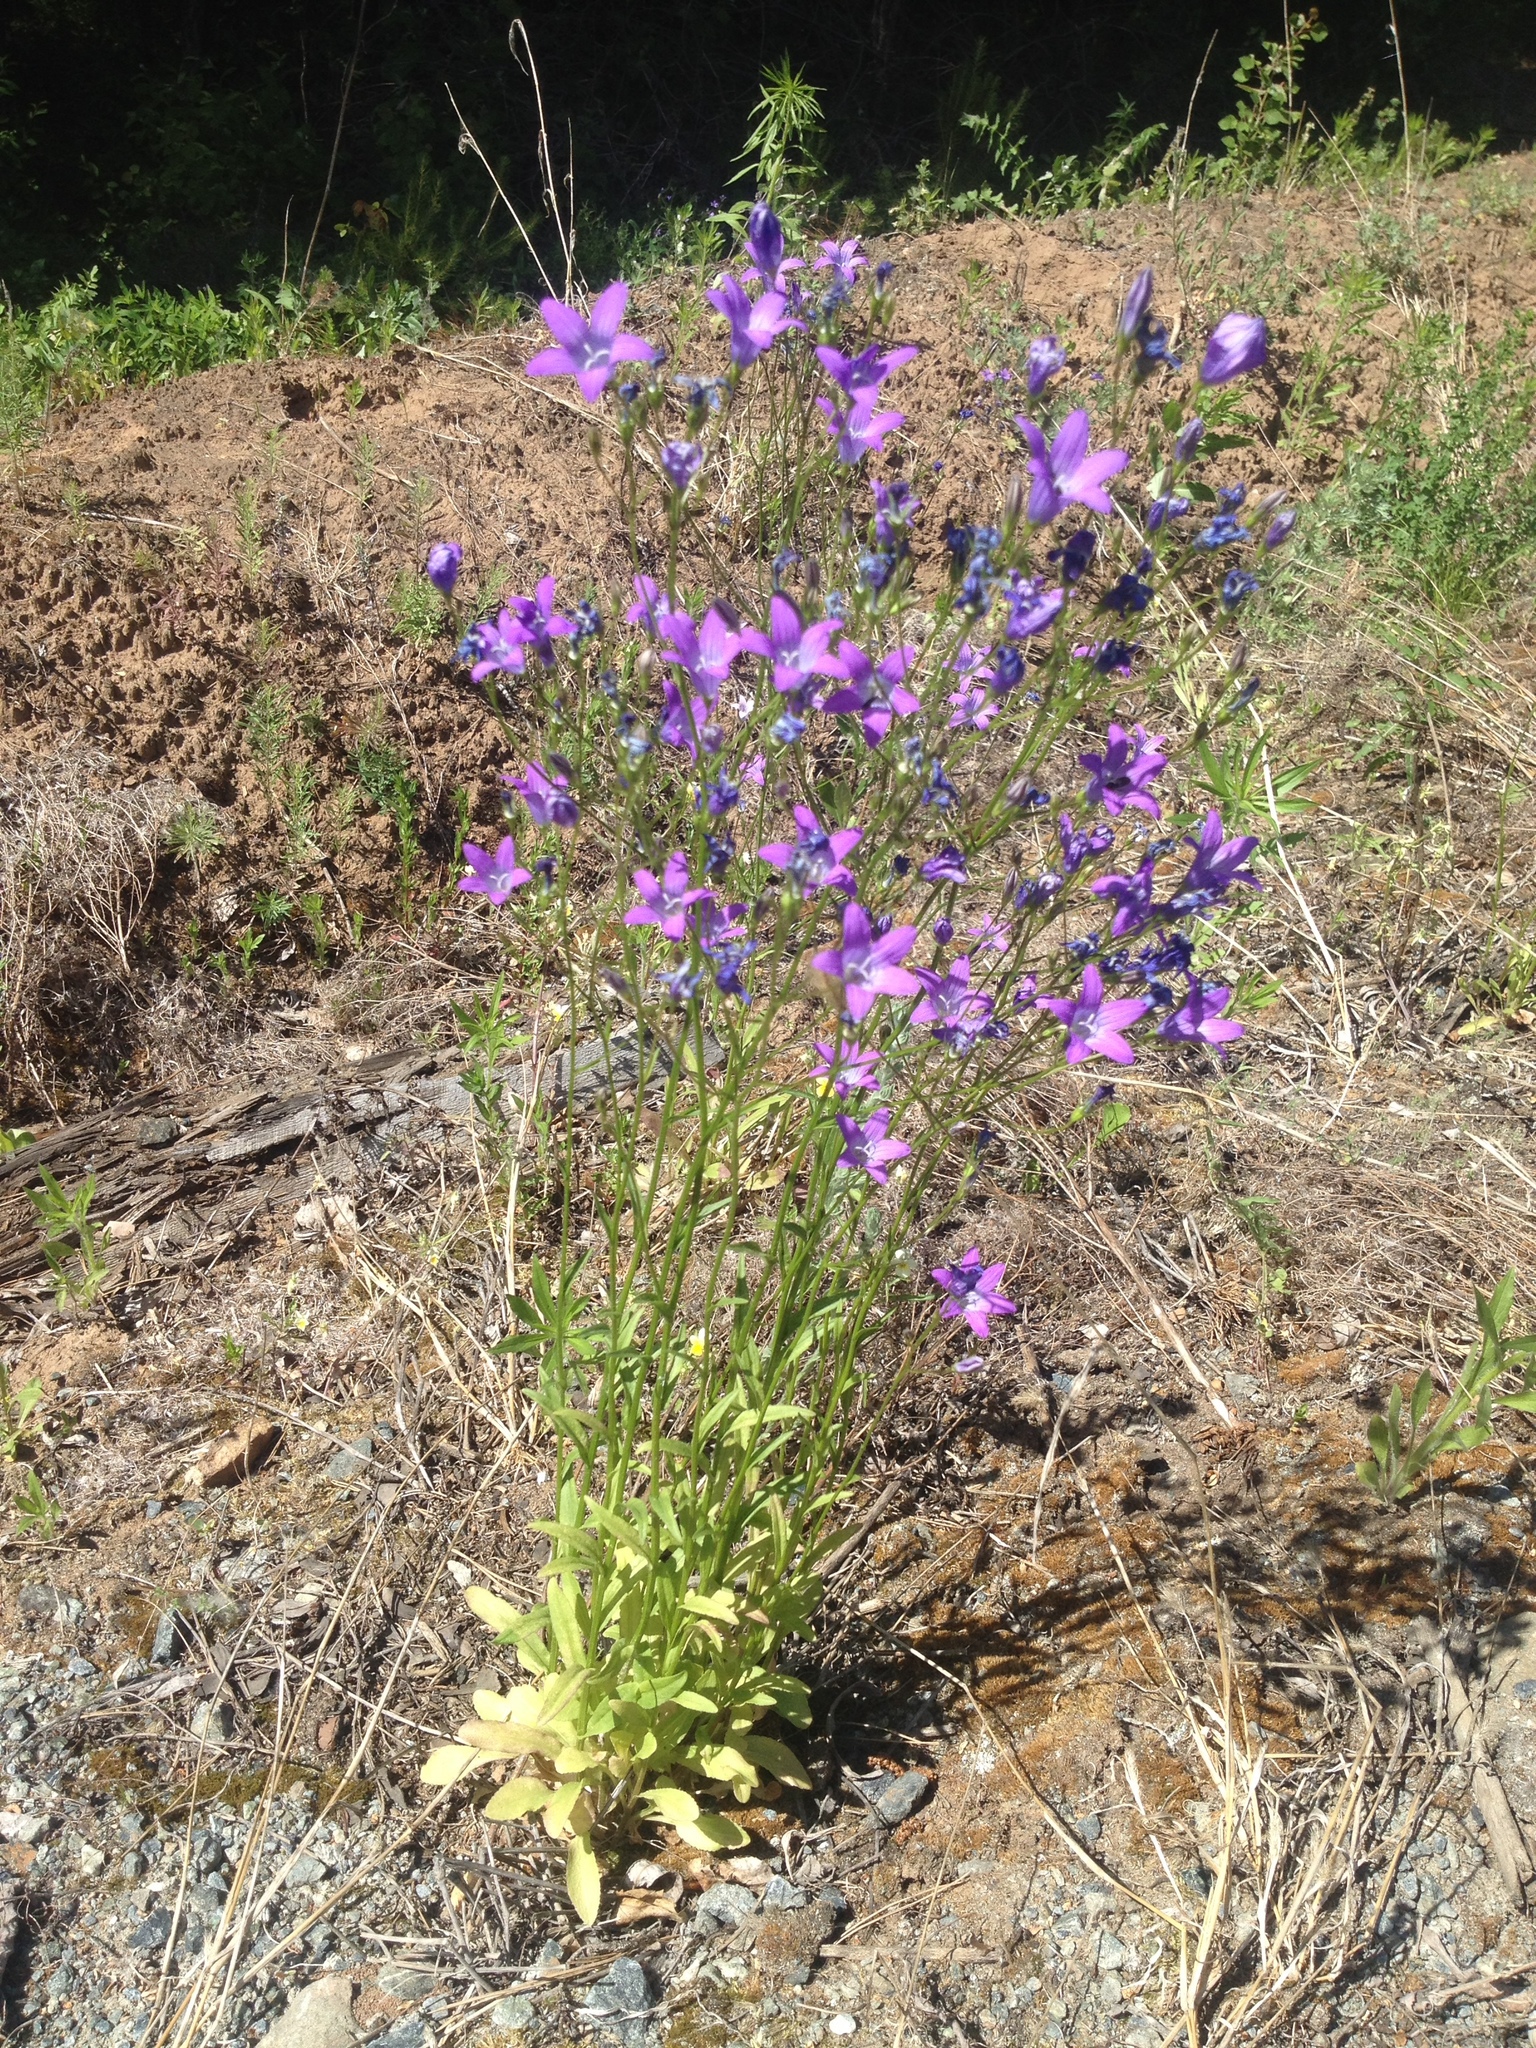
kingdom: Plantae
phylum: Tracheophyta
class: Magnoliopsida
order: Asterales
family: Campanulaceae
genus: Campanula
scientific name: Campanula patula
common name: Spreading bellflower
